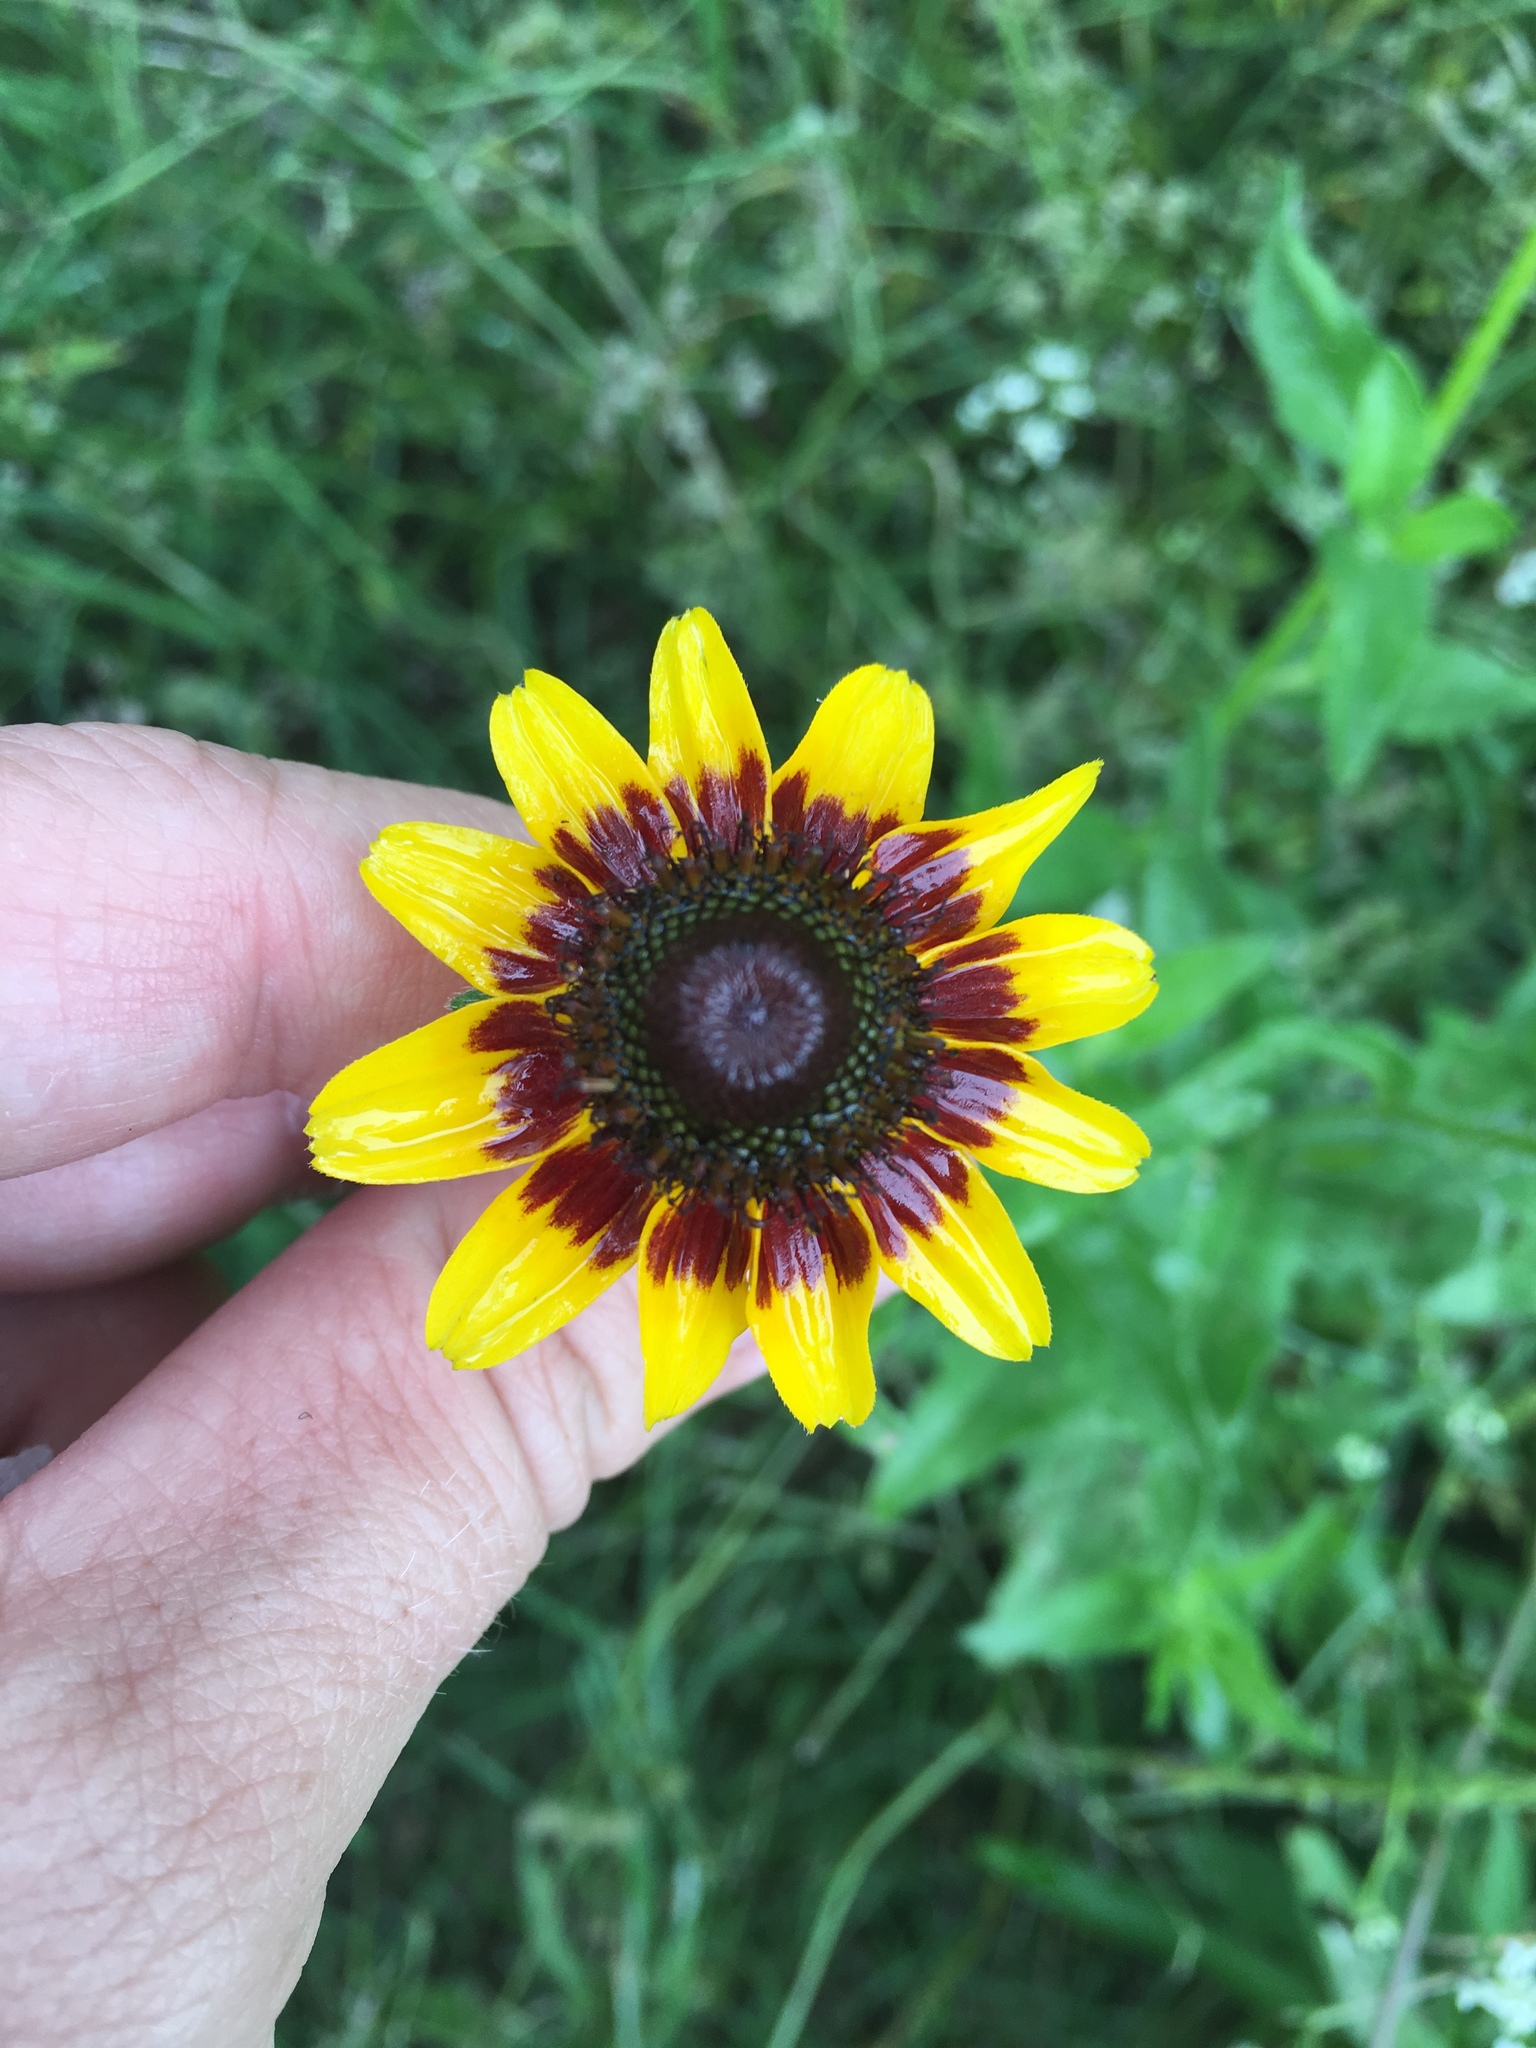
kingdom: Plantae
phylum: Tracheophyta
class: Magnoliopsida
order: Asterales
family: Asteraceae
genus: Rudbeckia
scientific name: Rudbeckia hirta
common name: Black-eyed-susan
